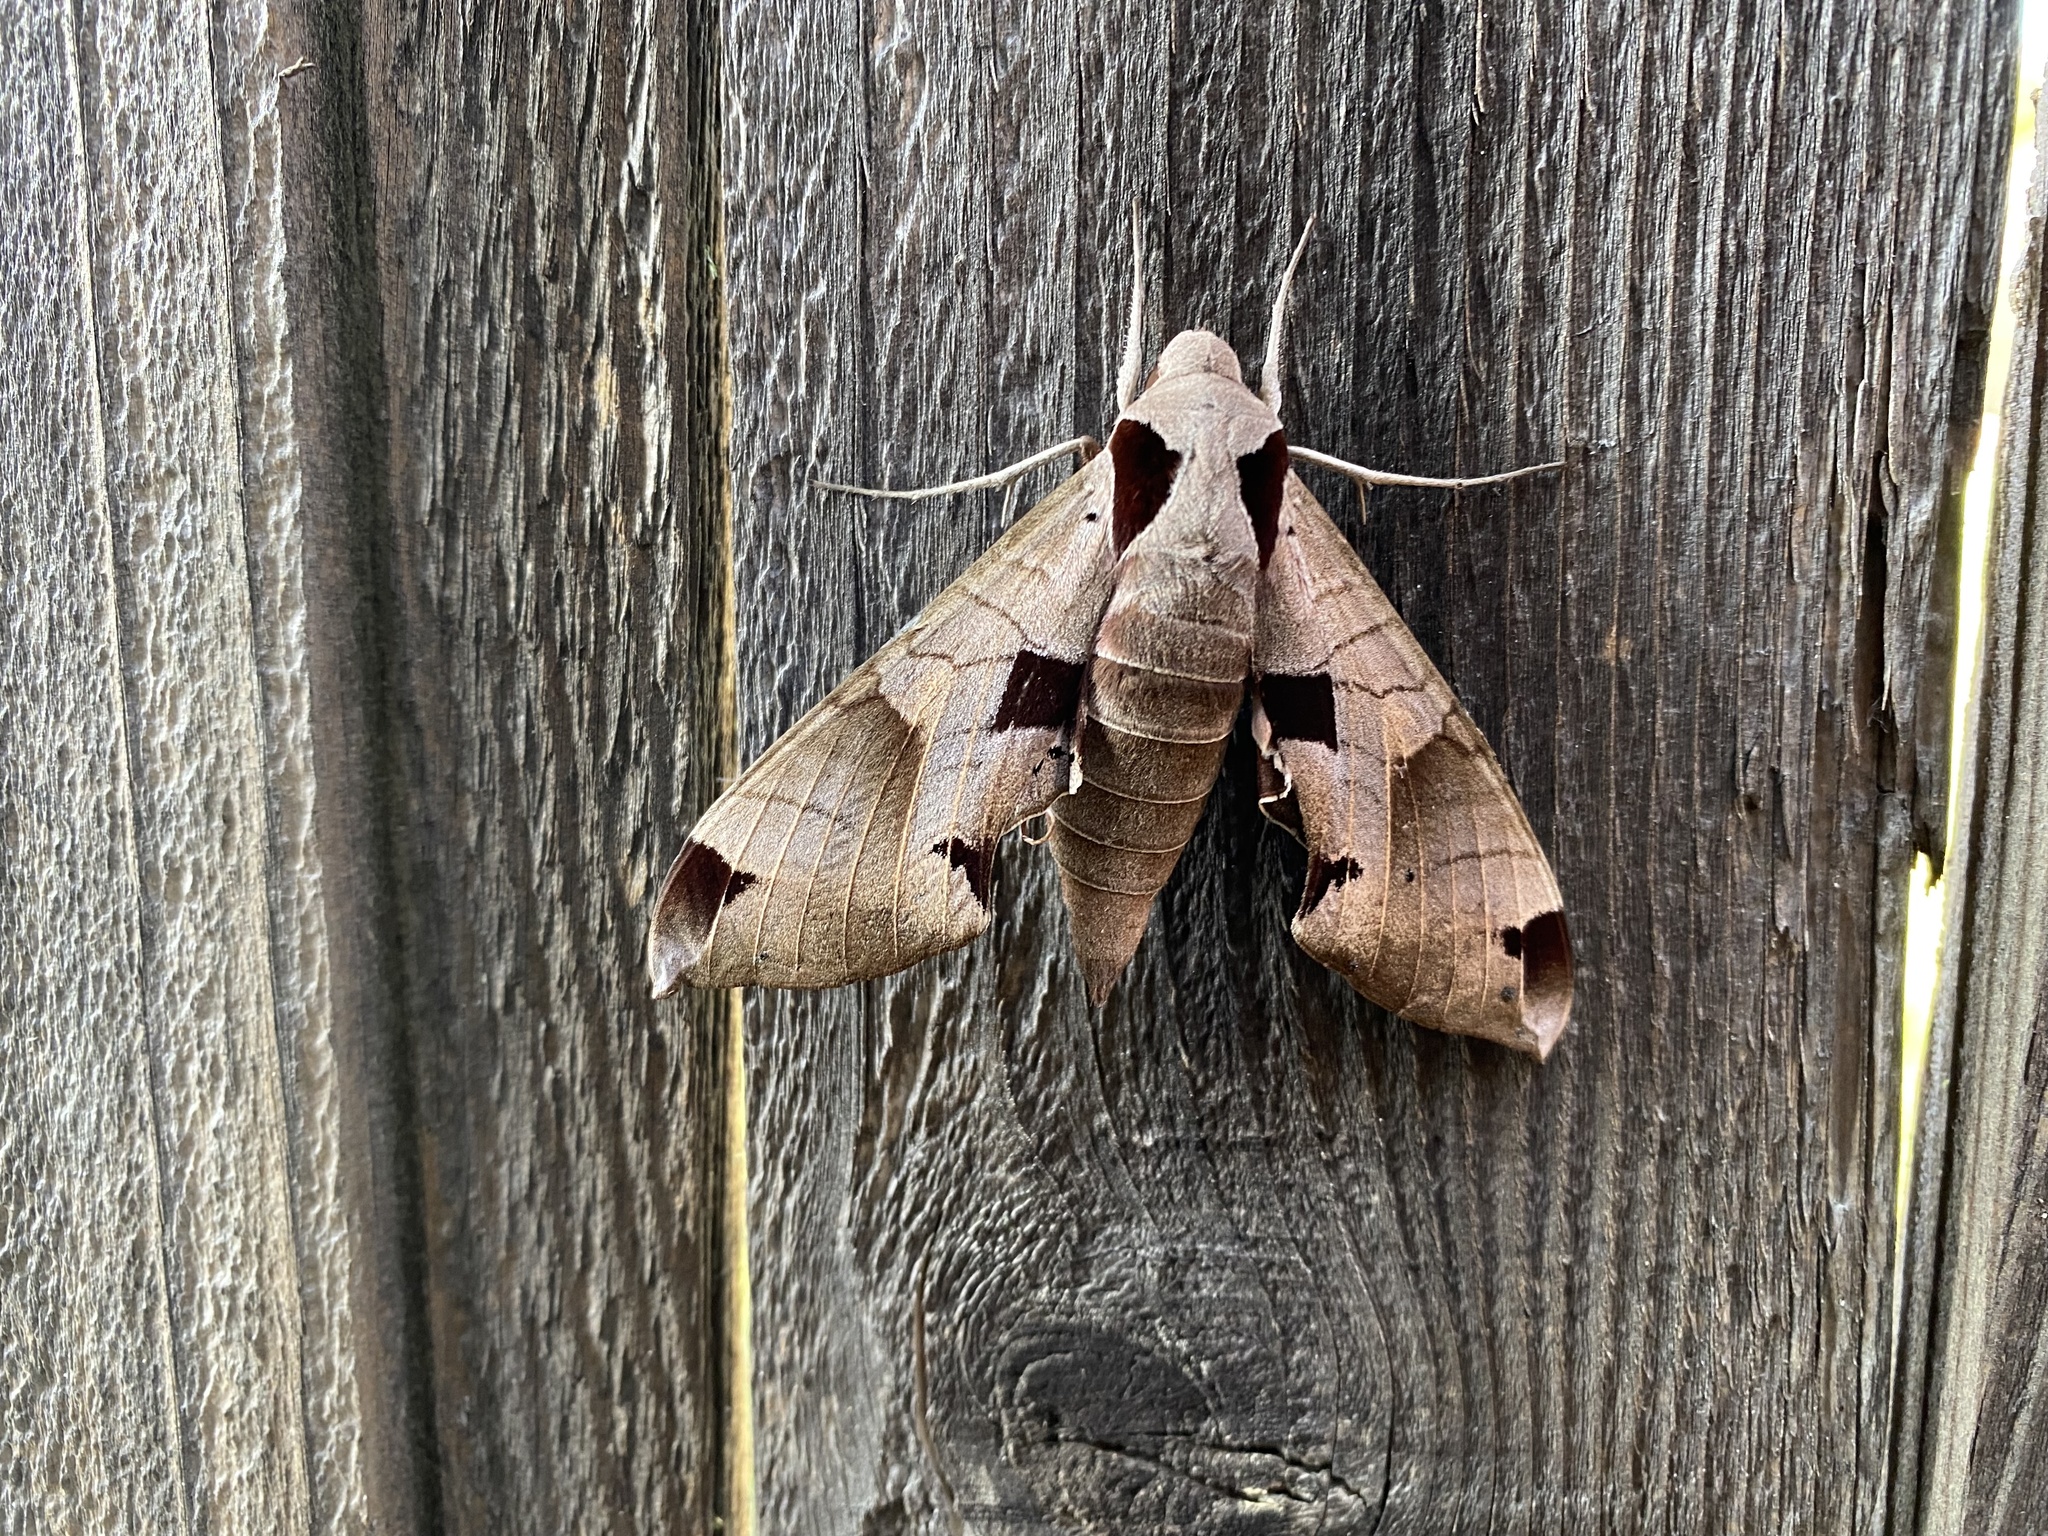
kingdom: Animalia
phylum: Arthropoda
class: Insecta
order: Lepidoptera
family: Sphingidae
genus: Eumorpha
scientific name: Eumorpha achemon
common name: Achemon sphinx
